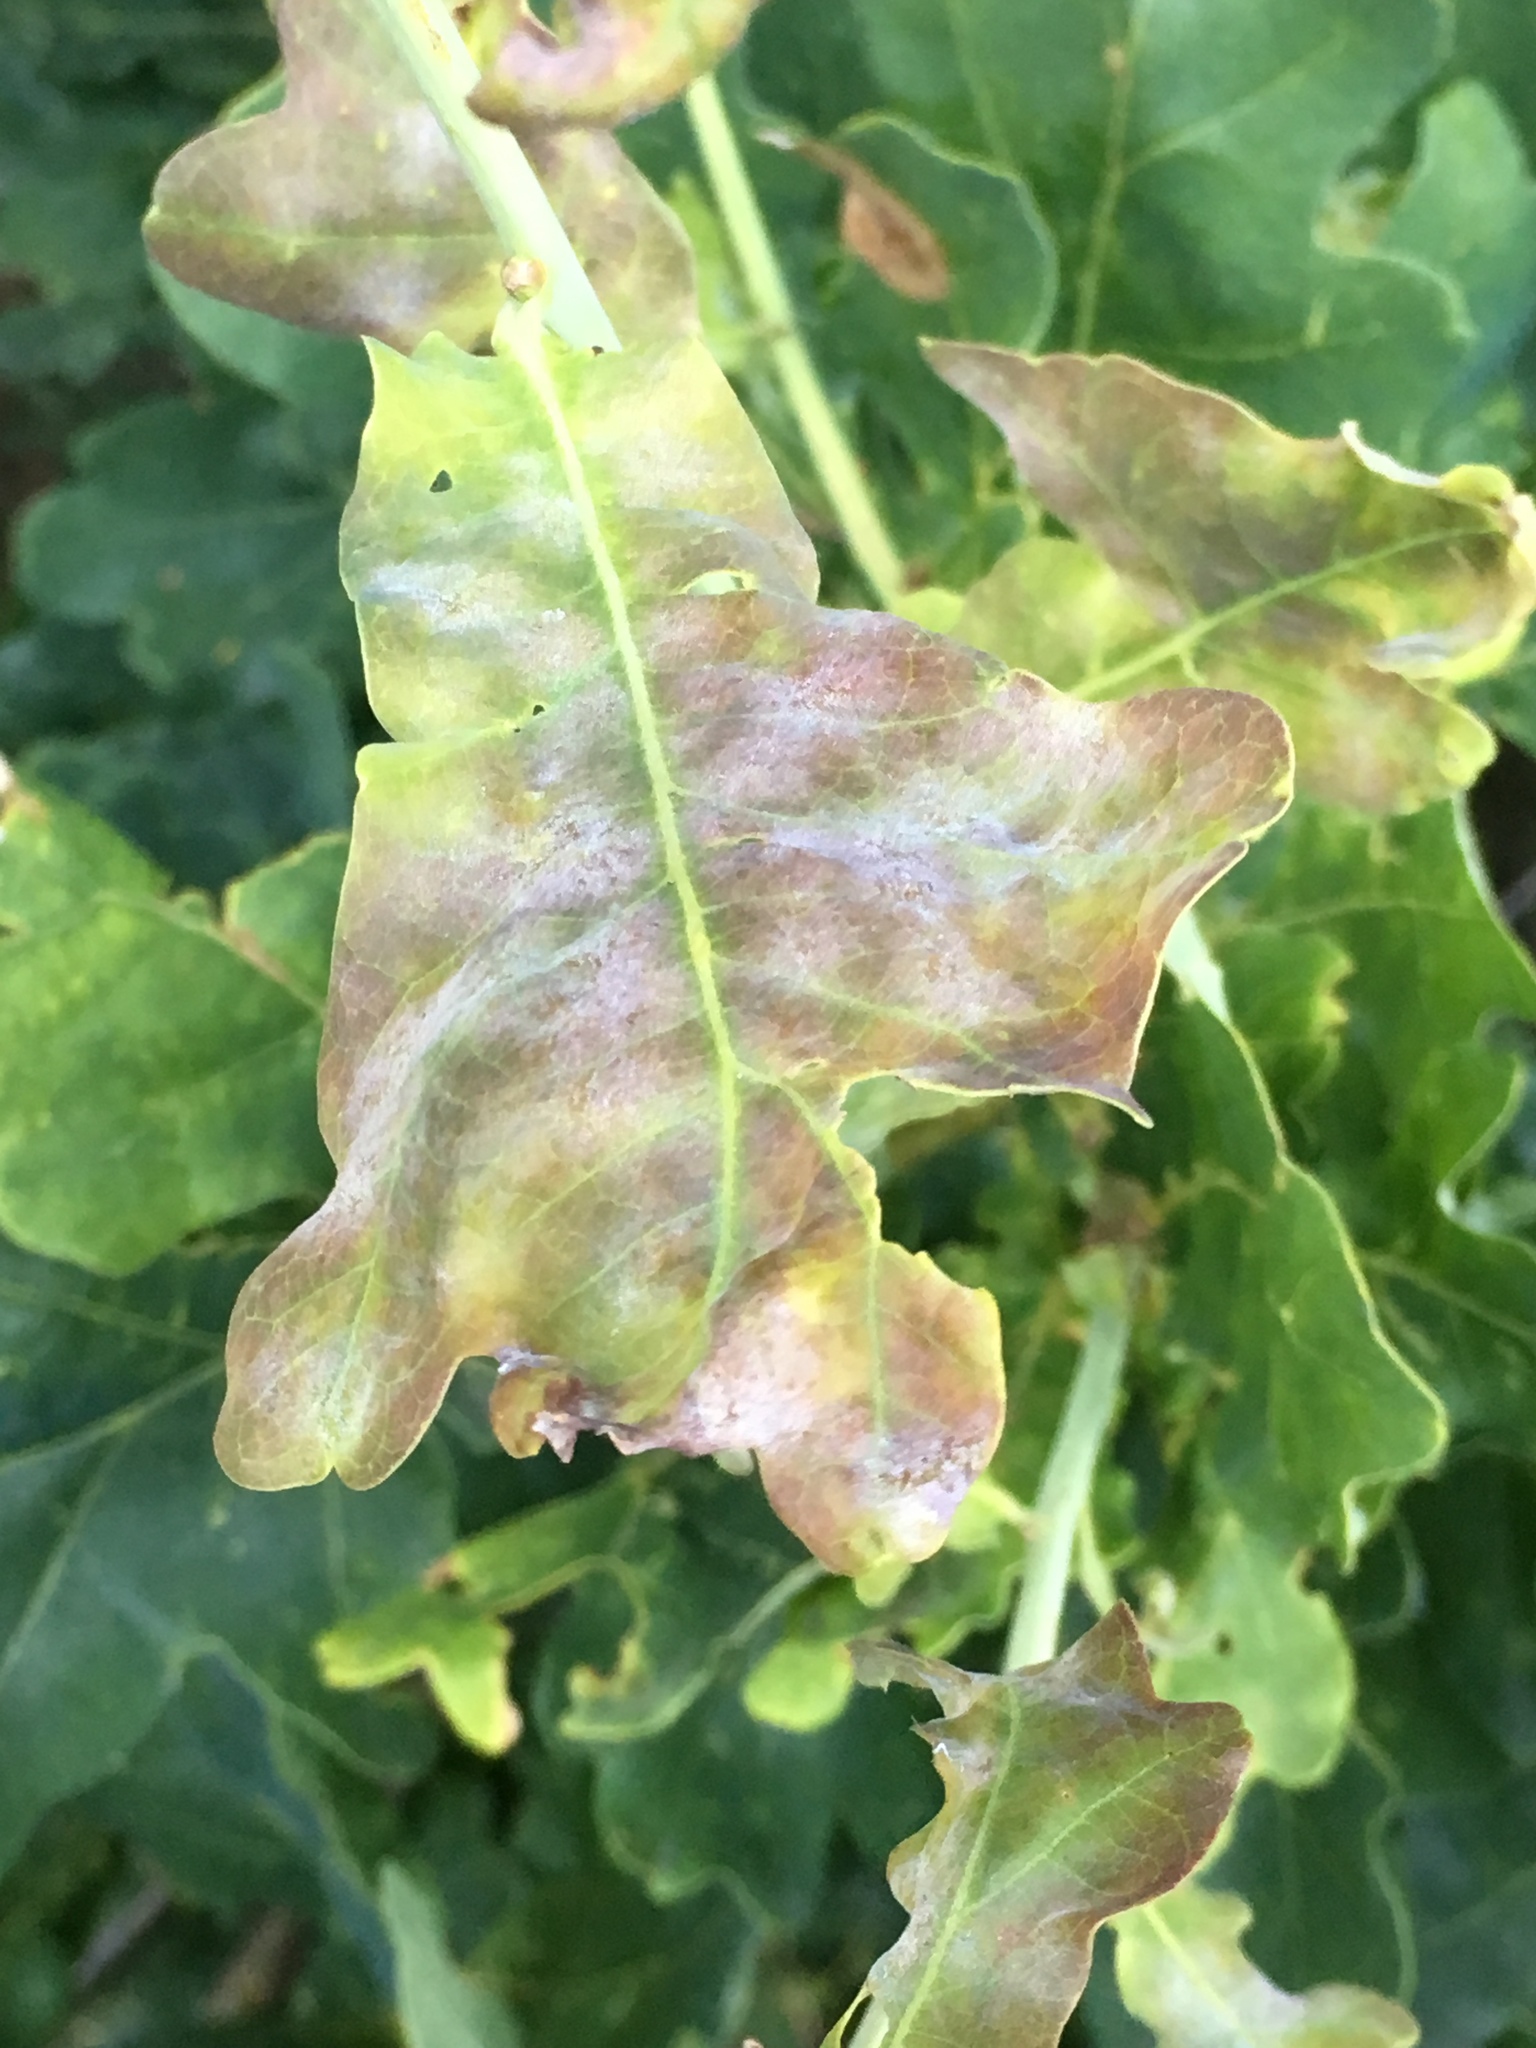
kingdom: Fungi
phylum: Ascomycota
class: Leotiomycetes
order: Helotiales
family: Erysiphaceae
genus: Erysiphe
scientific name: Erysiphe
